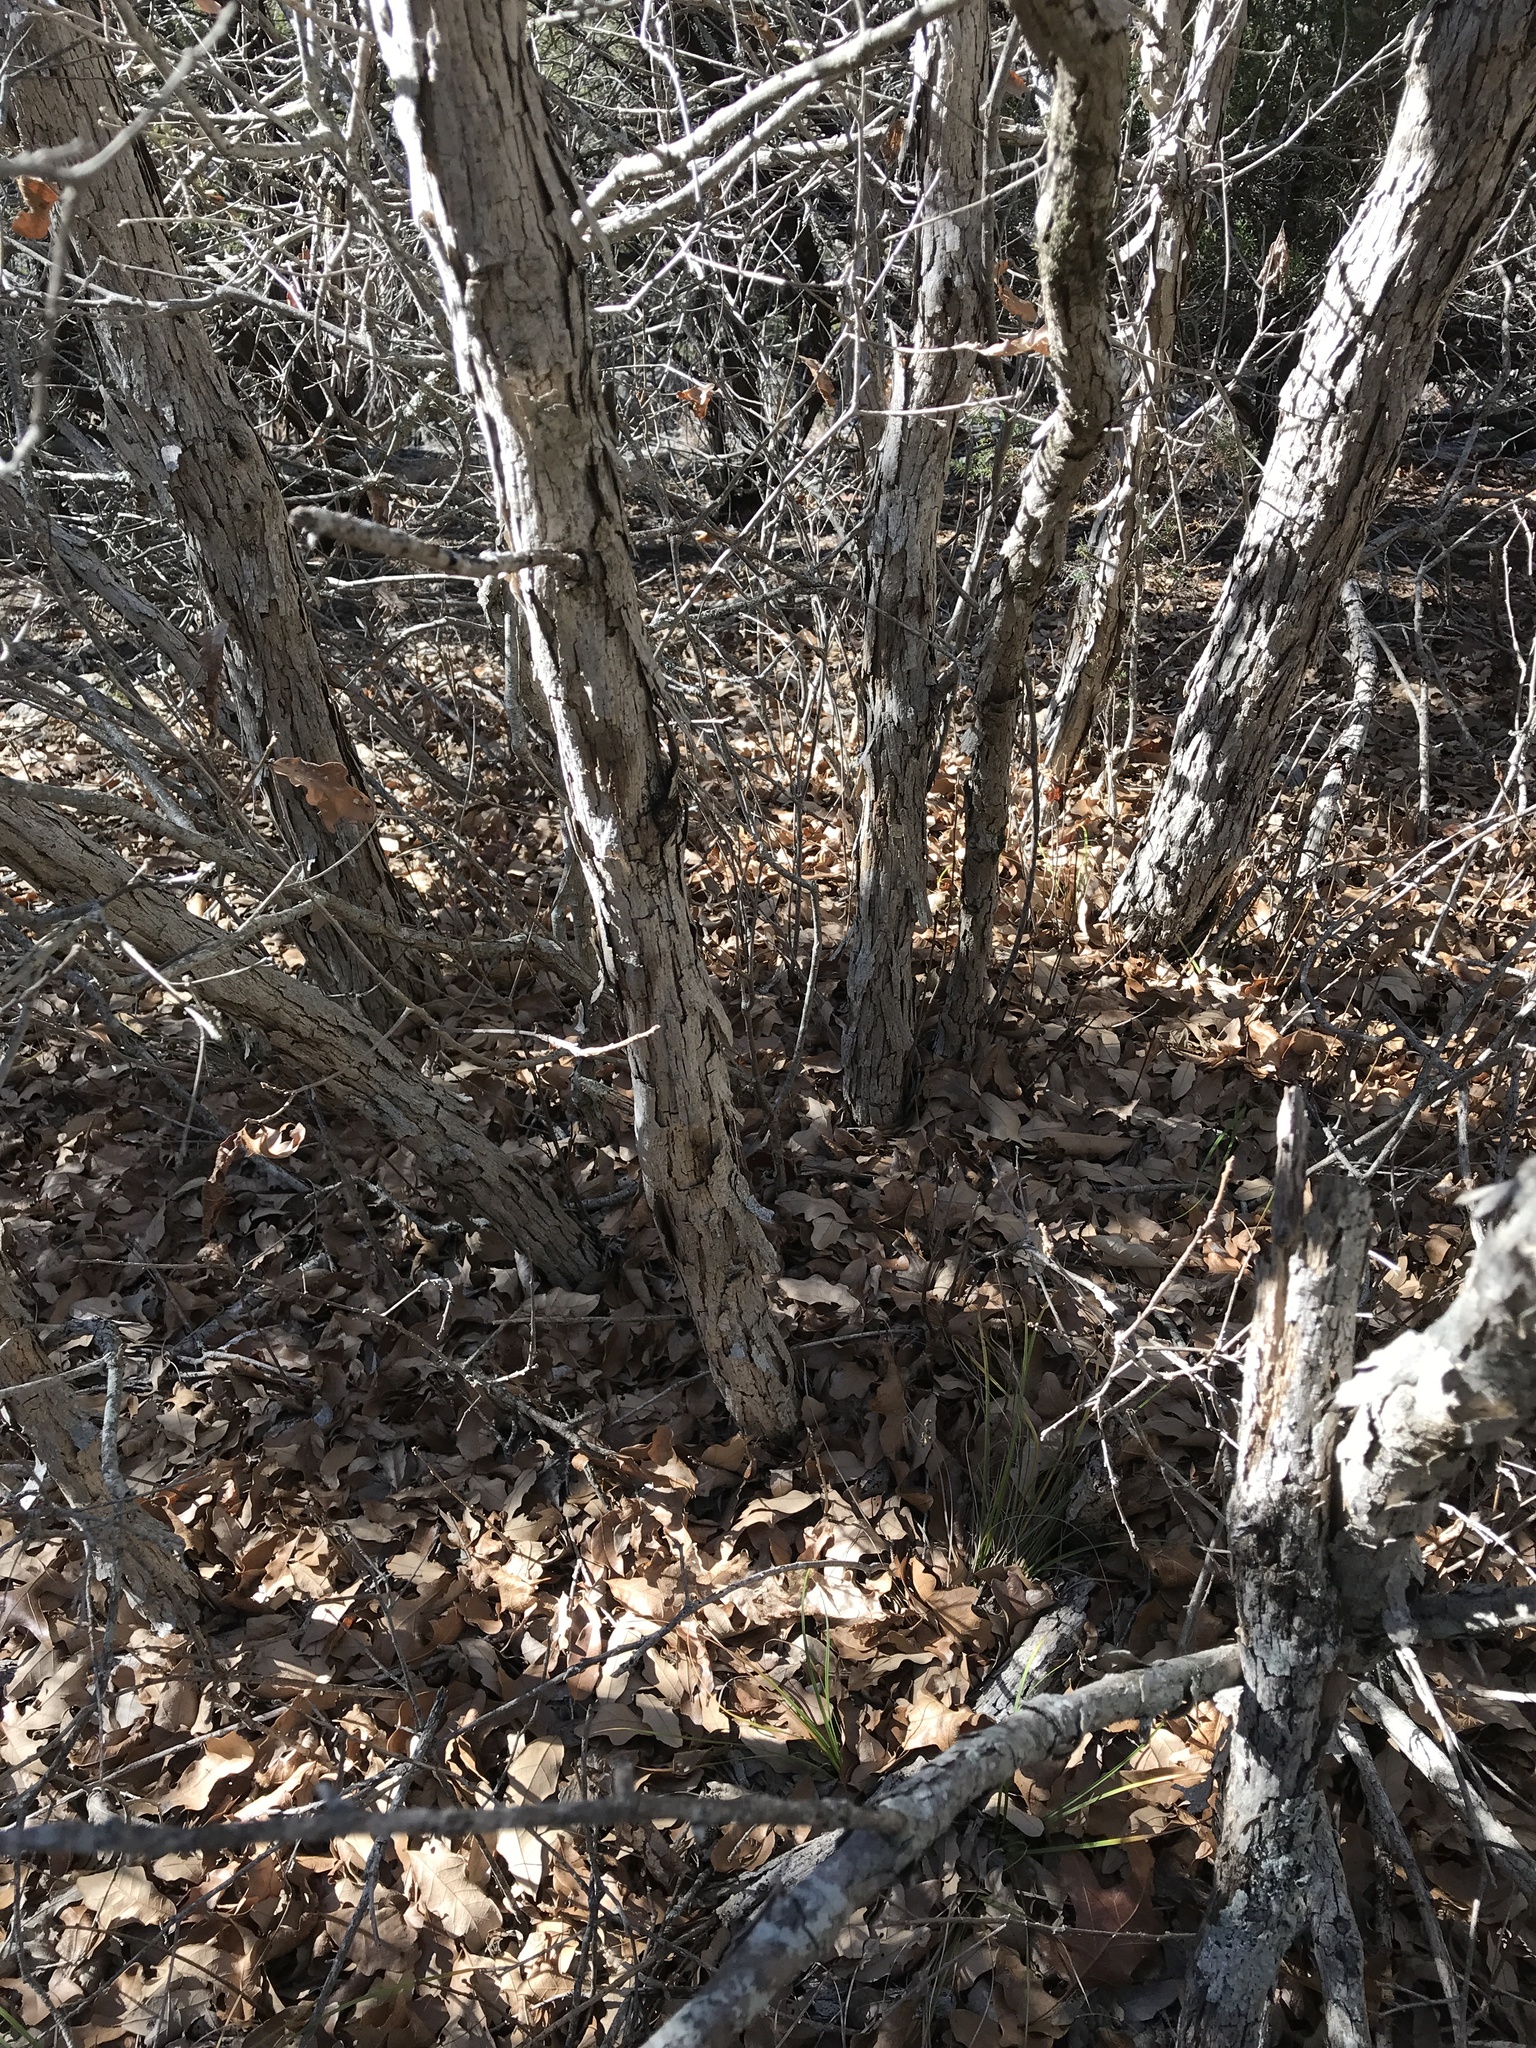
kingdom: Plantae
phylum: Tracheophyta
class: Magnoliopsida
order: Fagales
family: Fagaceae
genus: Quercus
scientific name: Quercus sinuata
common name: Durand oak
